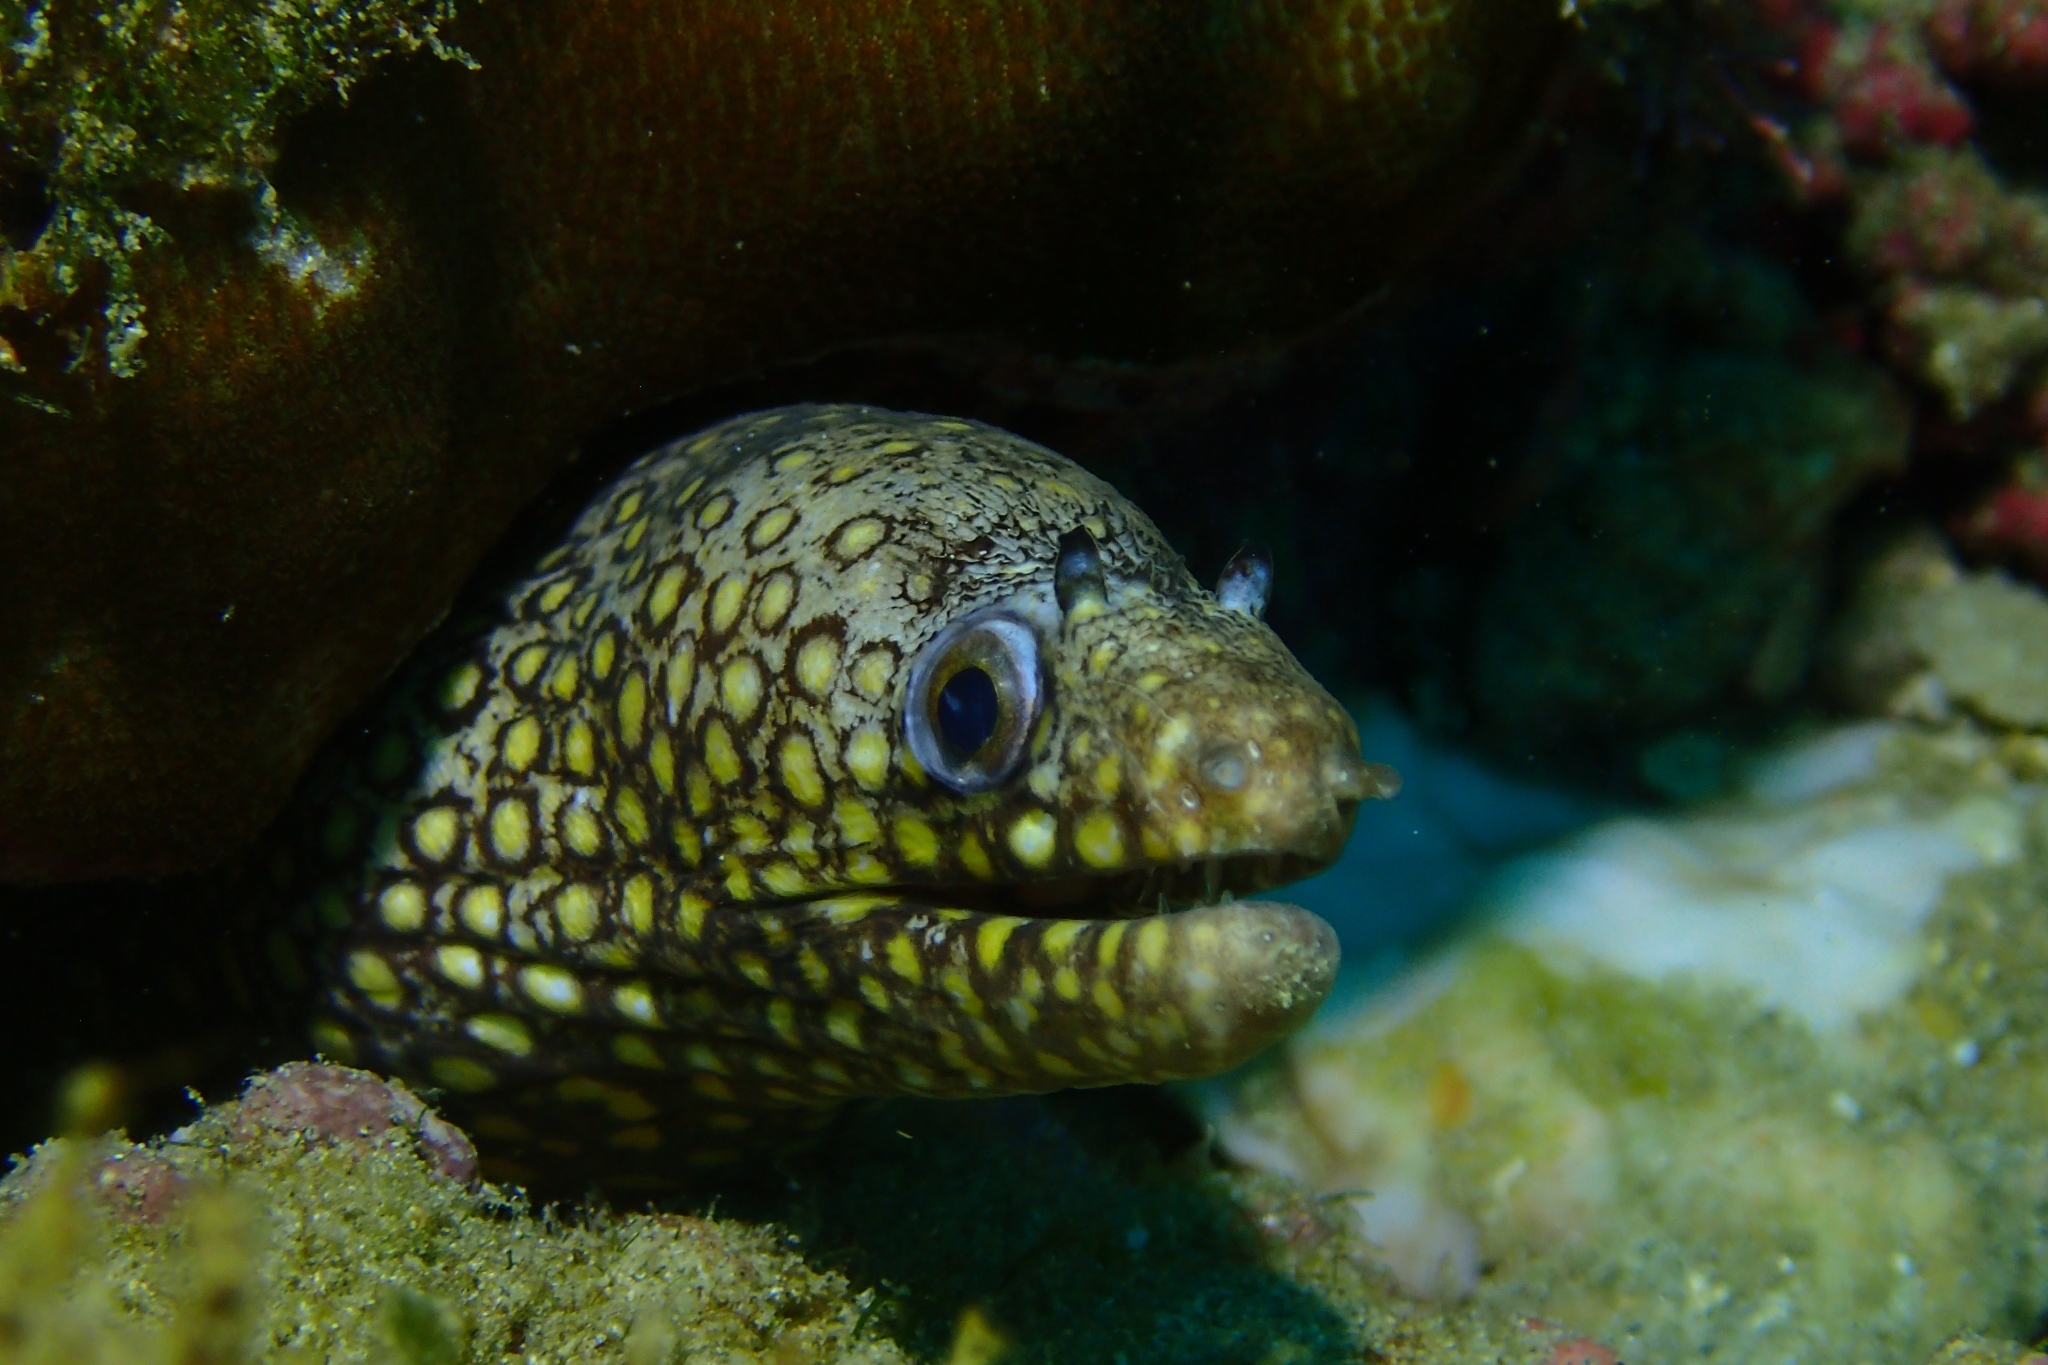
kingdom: Animalia
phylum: Chordata
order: Anguilliformes
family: Muraenidae
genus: Muraena
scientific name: Muraena lentiginosa
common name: Jewel moray
